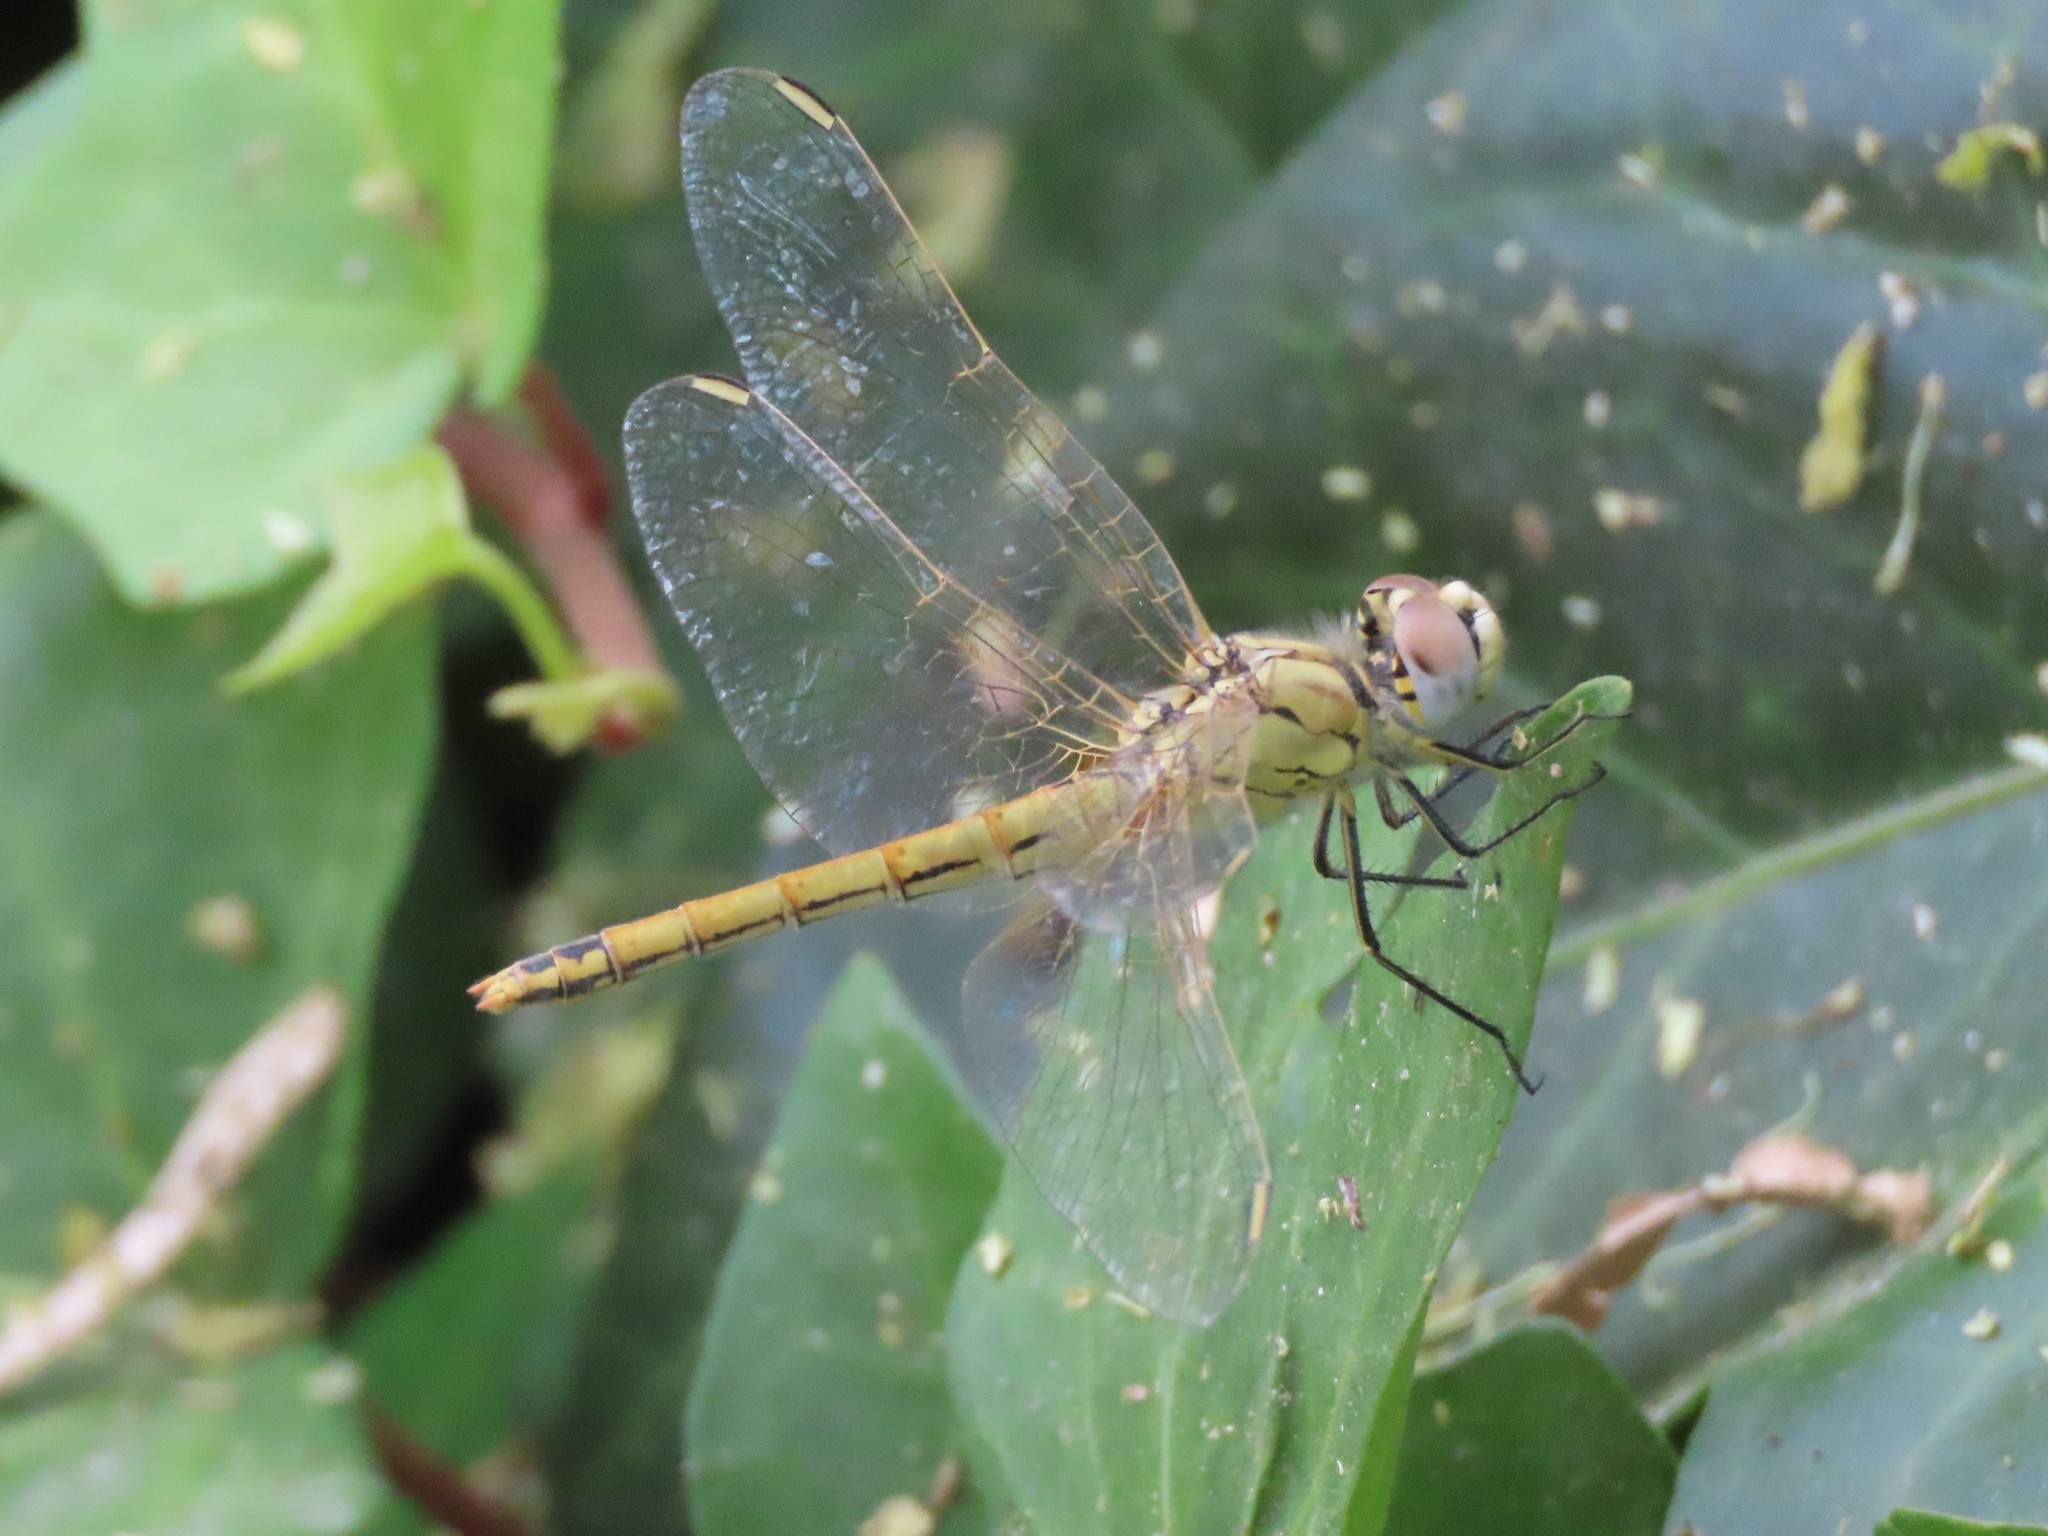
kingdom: Animalia
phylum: Arthropoda
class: Insecta
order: Odonata
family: Libellulidae
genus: Sympetrum
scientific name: Sympetrum fonscolombii
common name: Red-veined darter
